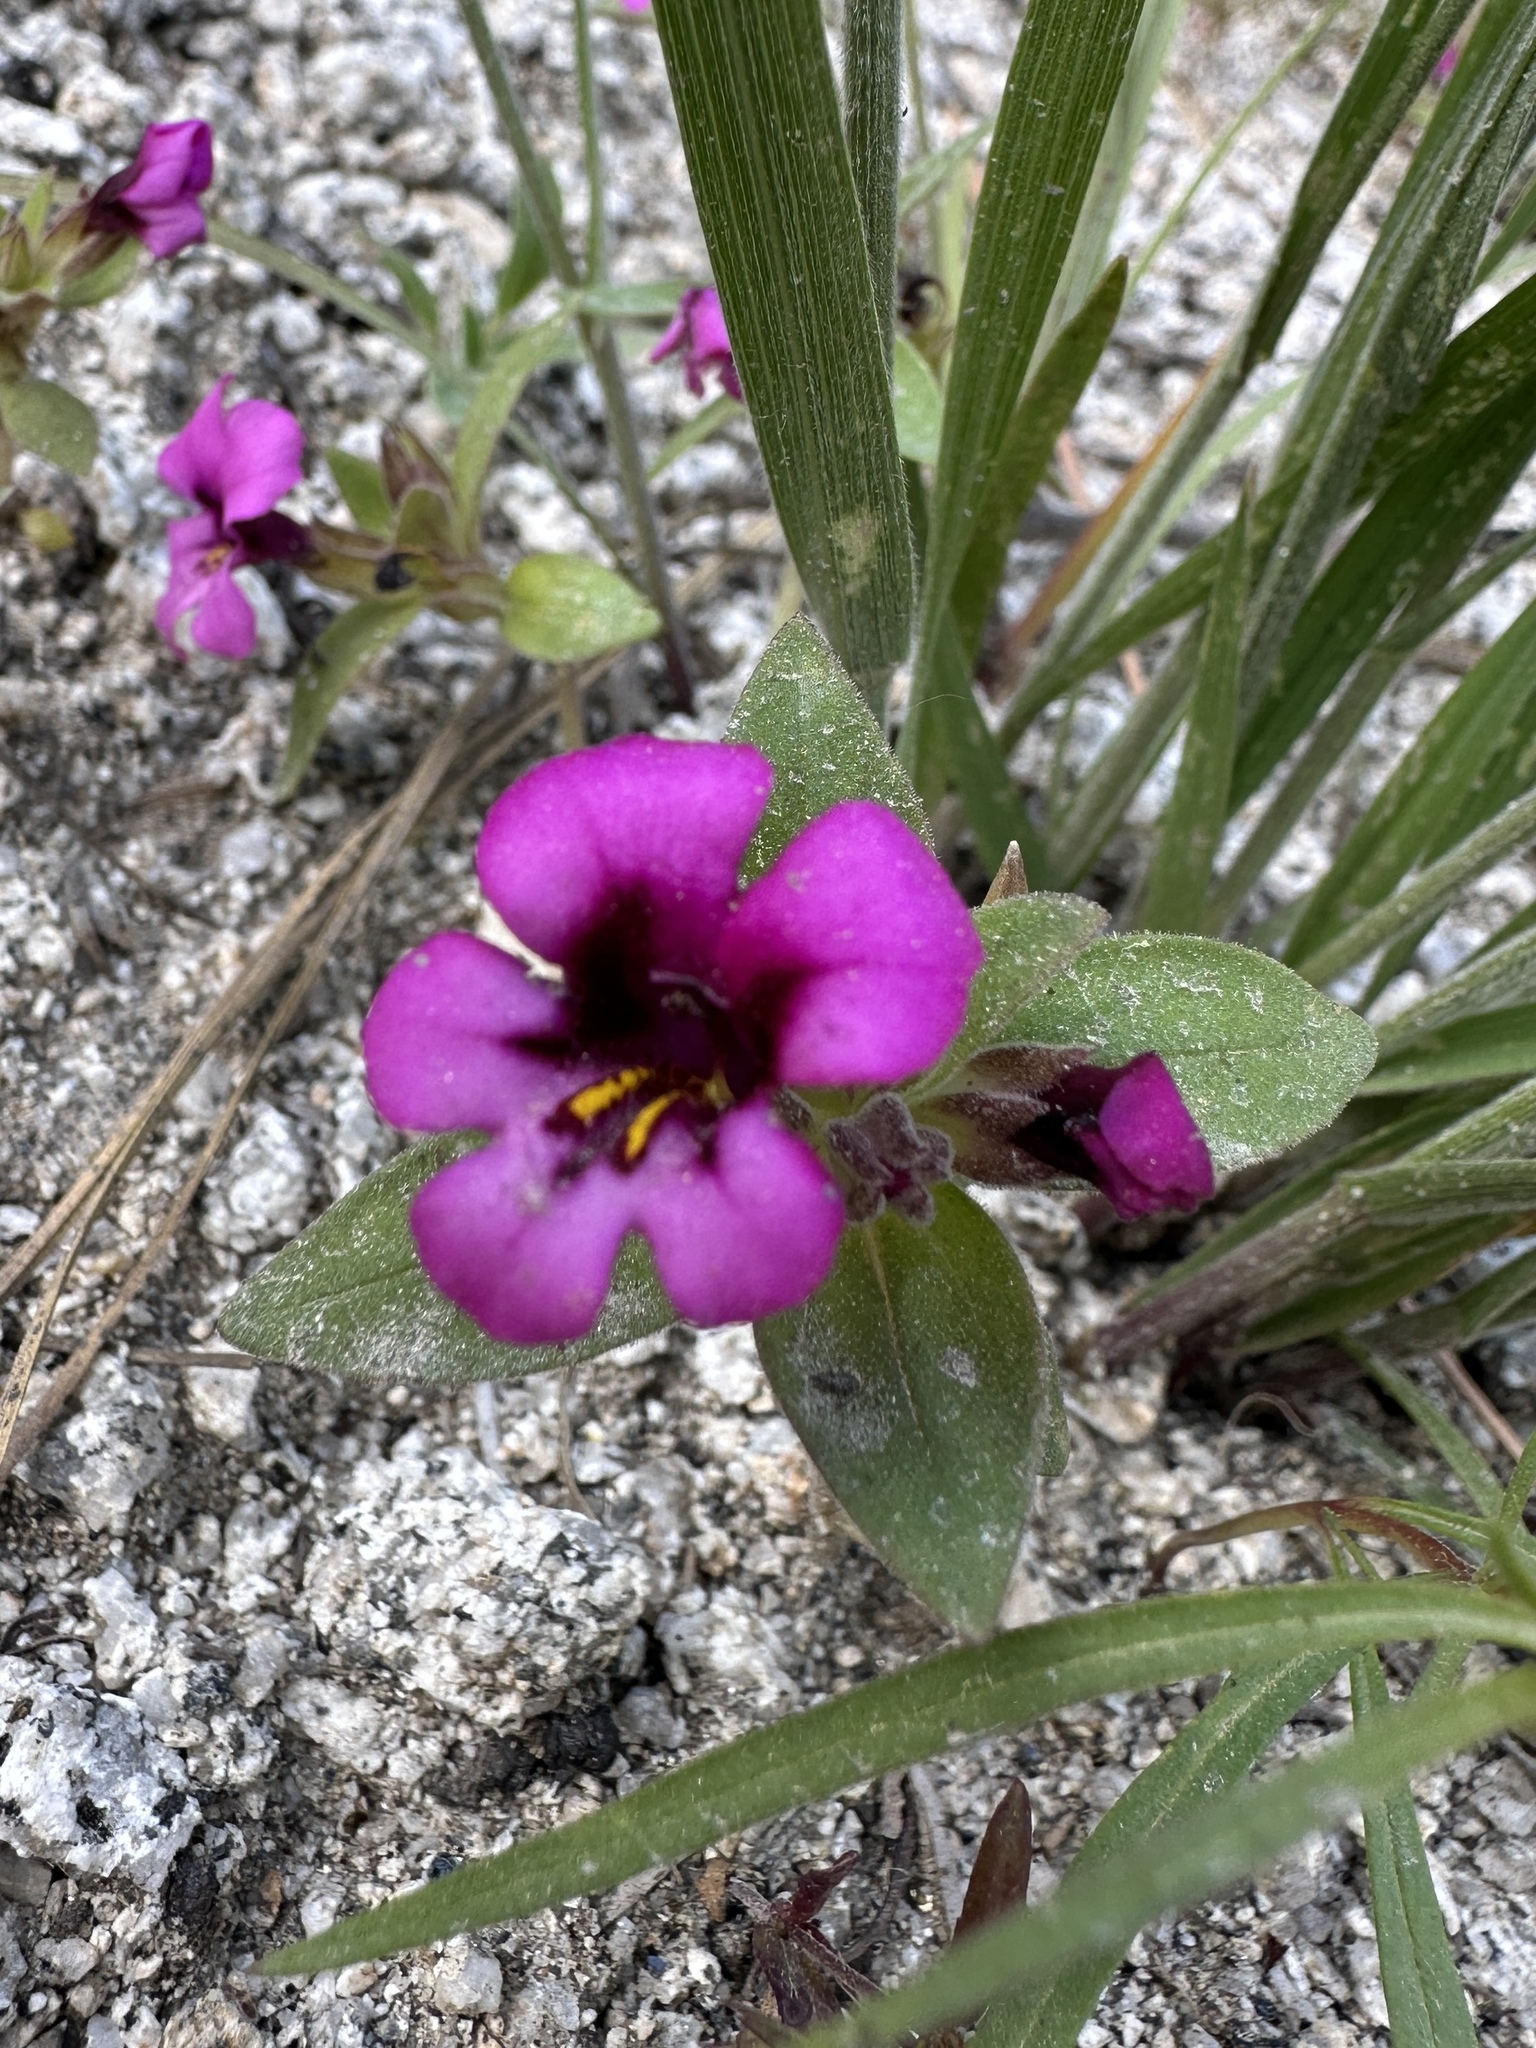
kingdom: Plantae
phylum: Tracheophyta
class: Magnoliopsida
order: Lamiales
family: Phrymaceae
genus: Diplacus
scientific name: Diplacus nanus
